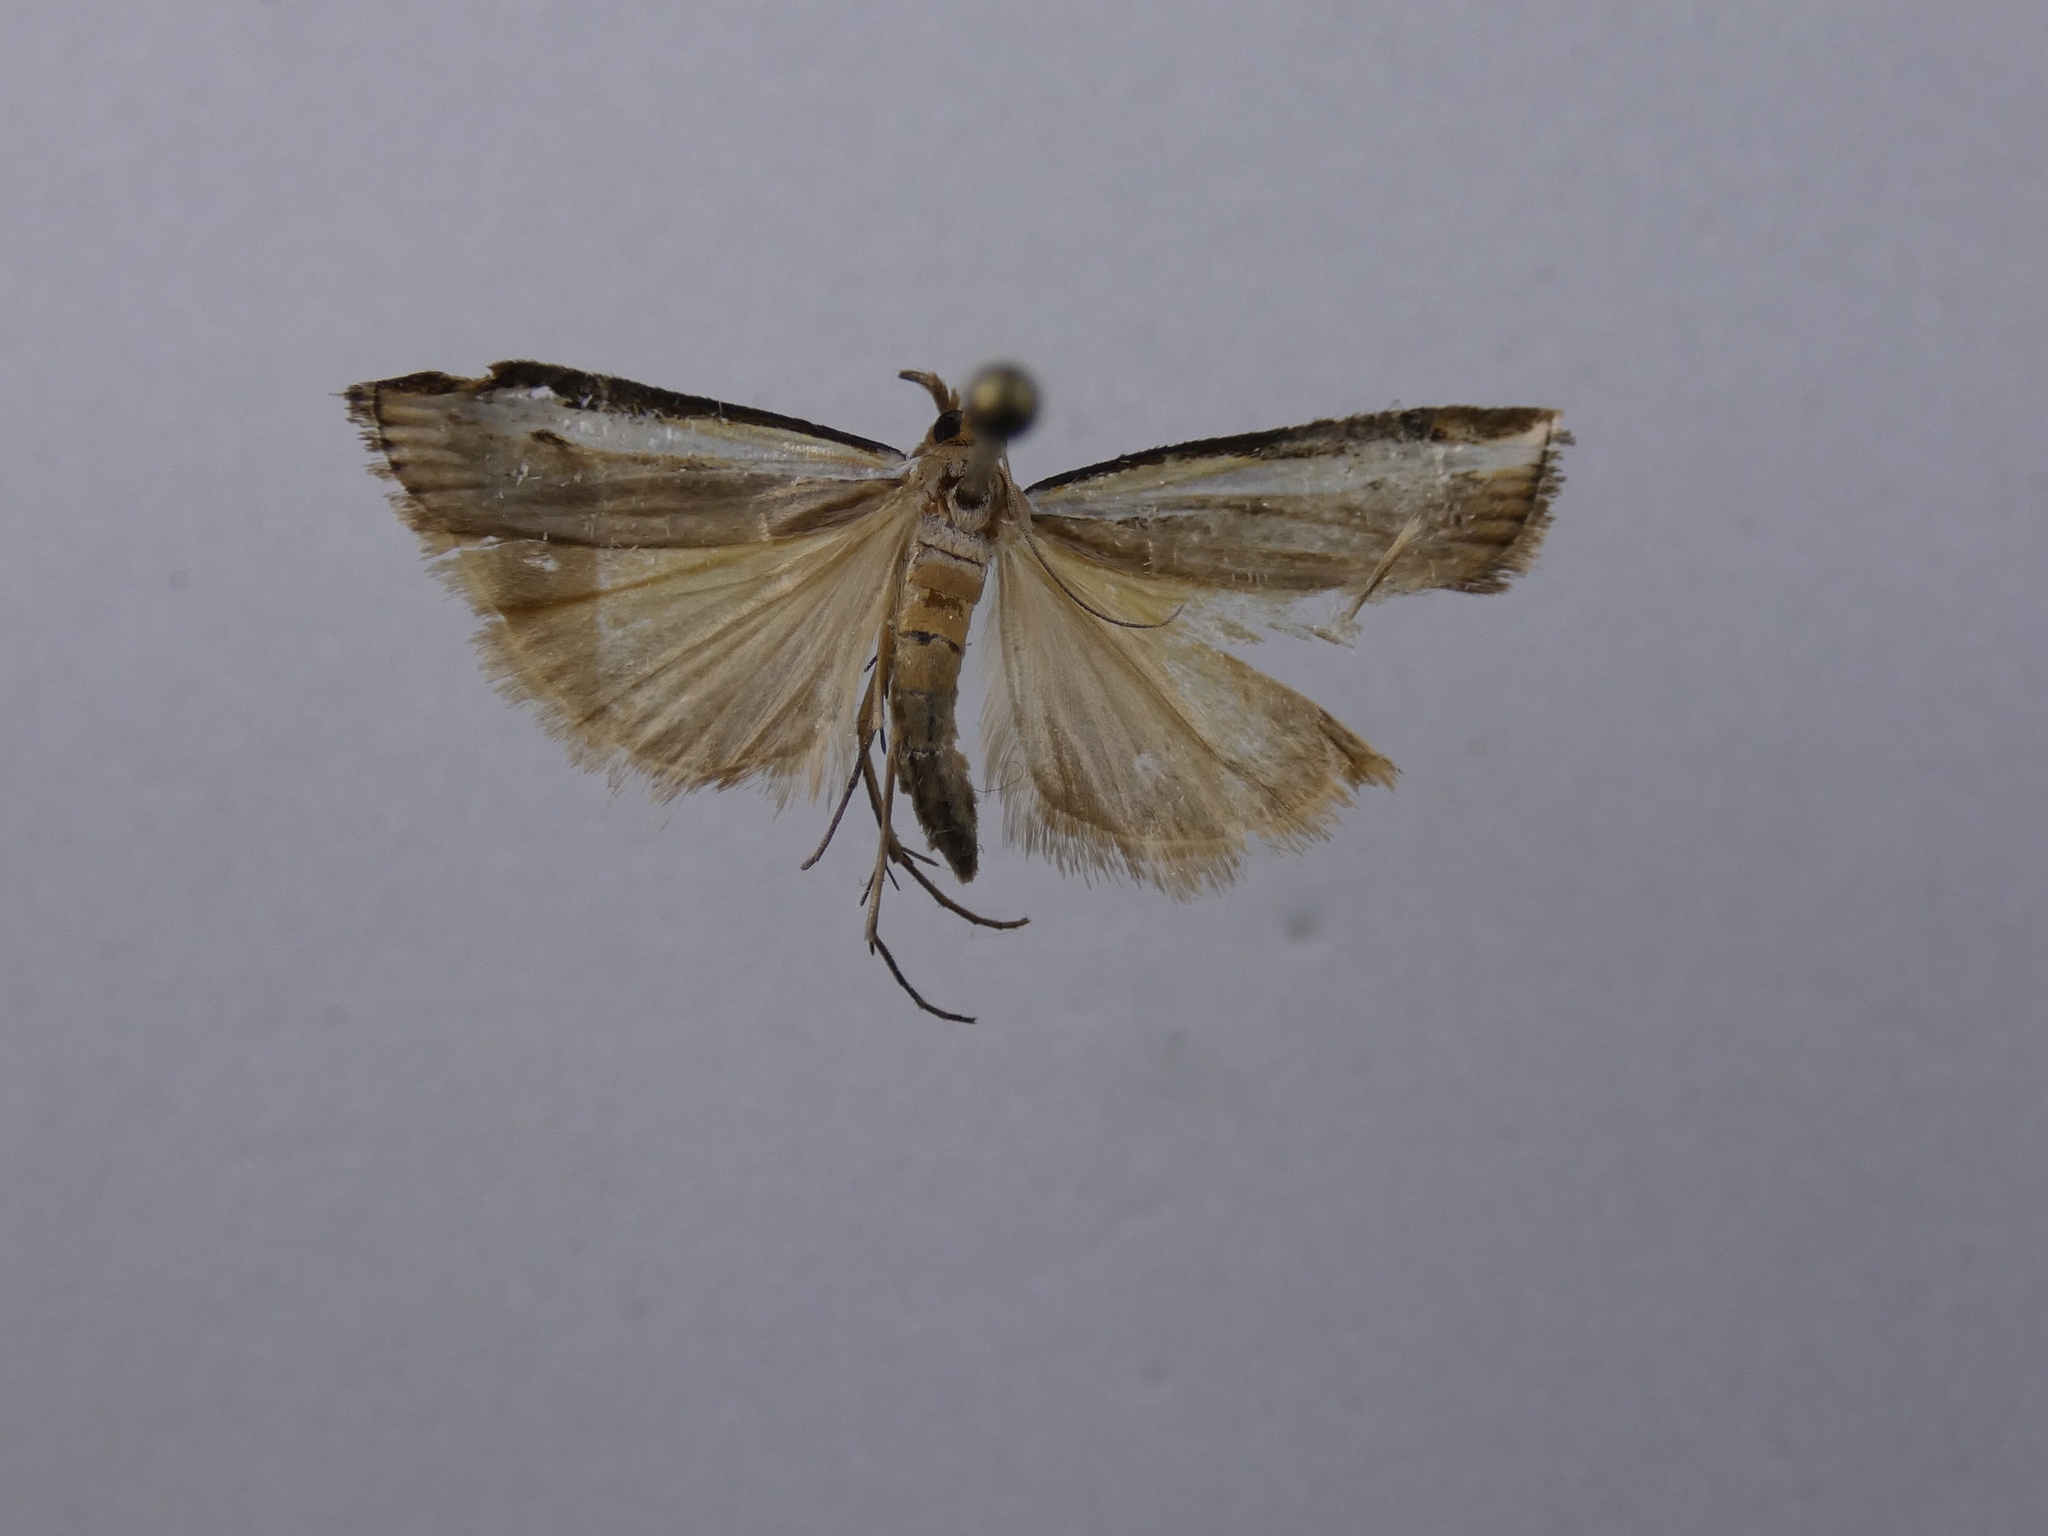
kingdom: Animalia
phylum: Arthropoda
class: Insecta
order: Lepidoptera
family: Crambidae
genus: Orocrambus
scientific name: Orocrambus flexuosellus
